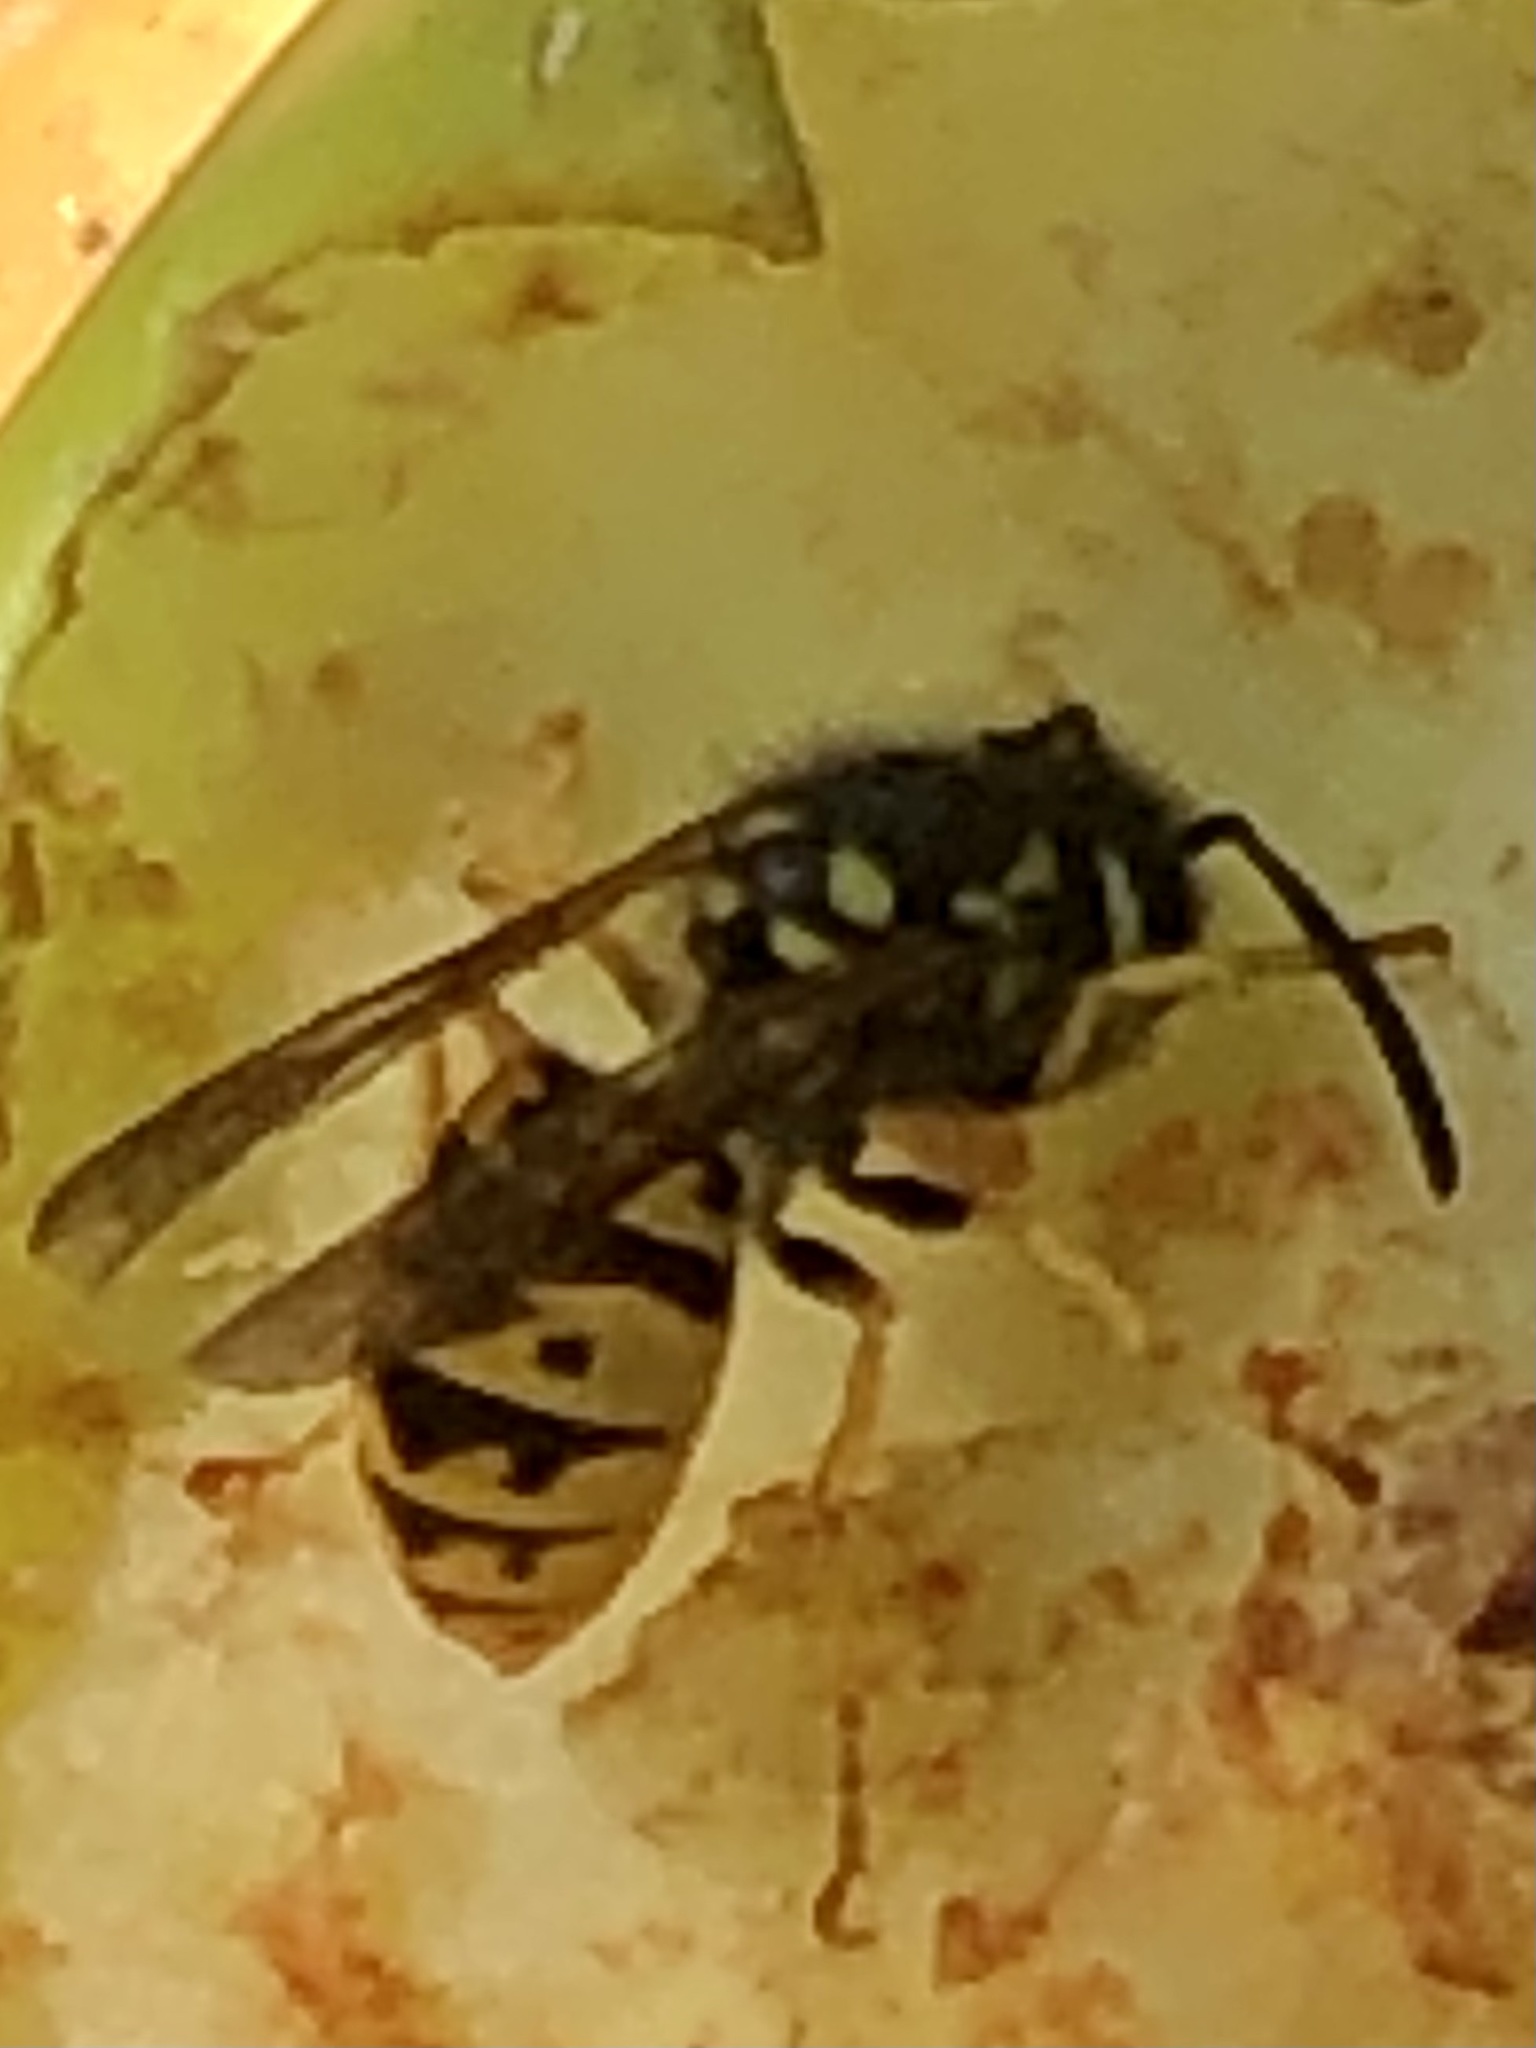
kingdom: Animalia
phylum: Arthropoda
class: Insecta
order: Hymenoptera
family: Vespidae
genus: Vespula
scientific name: Vespula germanica
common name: German wasp
